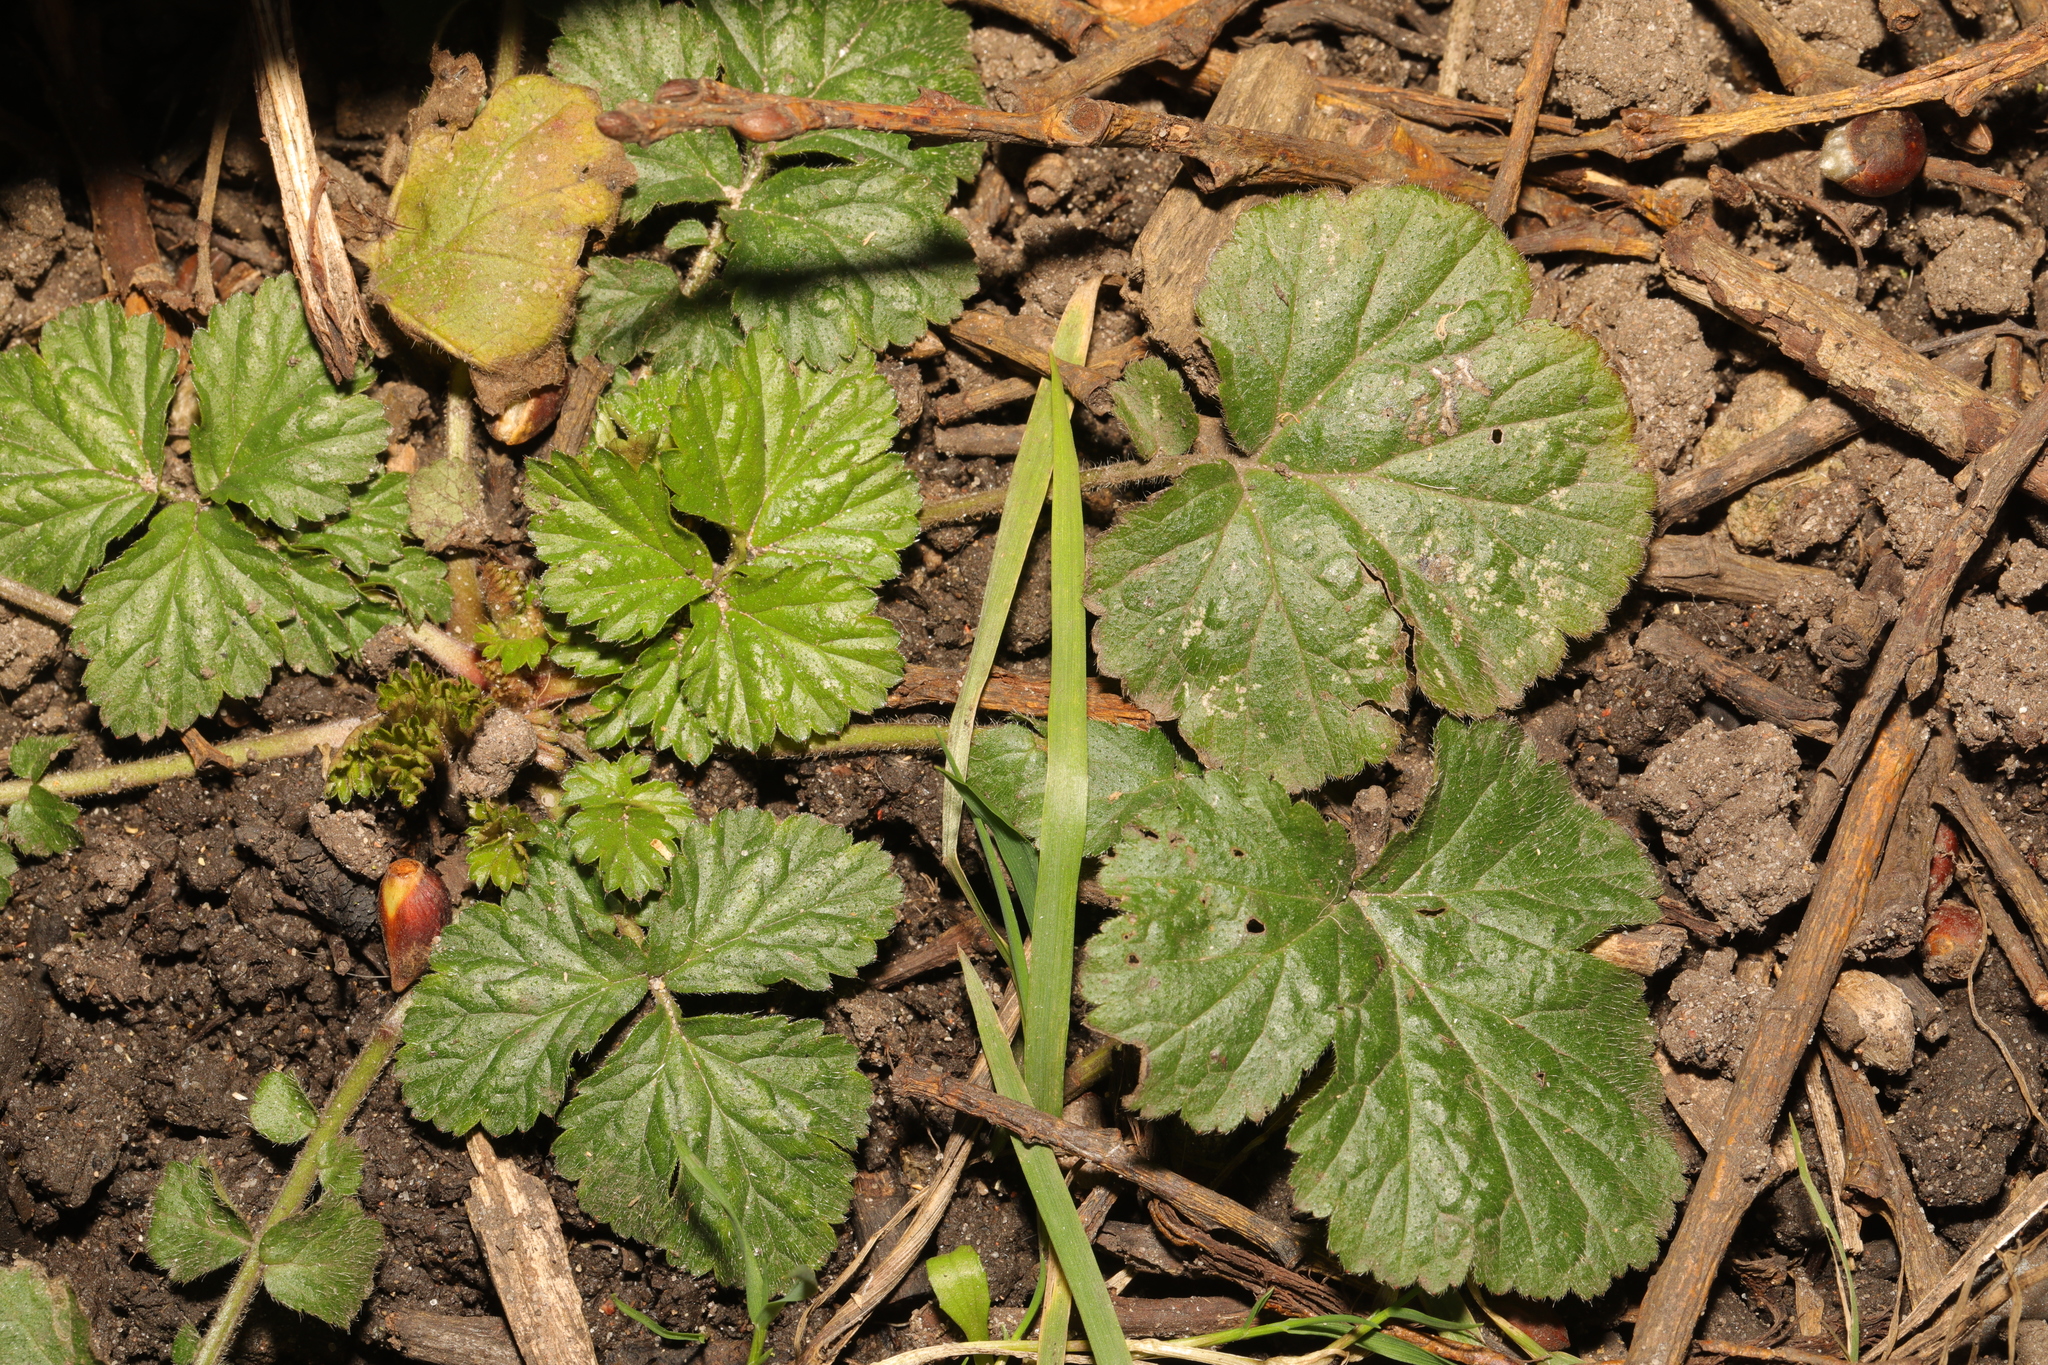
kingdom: Plantae
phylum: Tracheophyta
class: Magnoliopsida
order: Rosales
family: Rosaceae
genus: Geum
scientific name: Geum urbanum
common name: Wood avens
